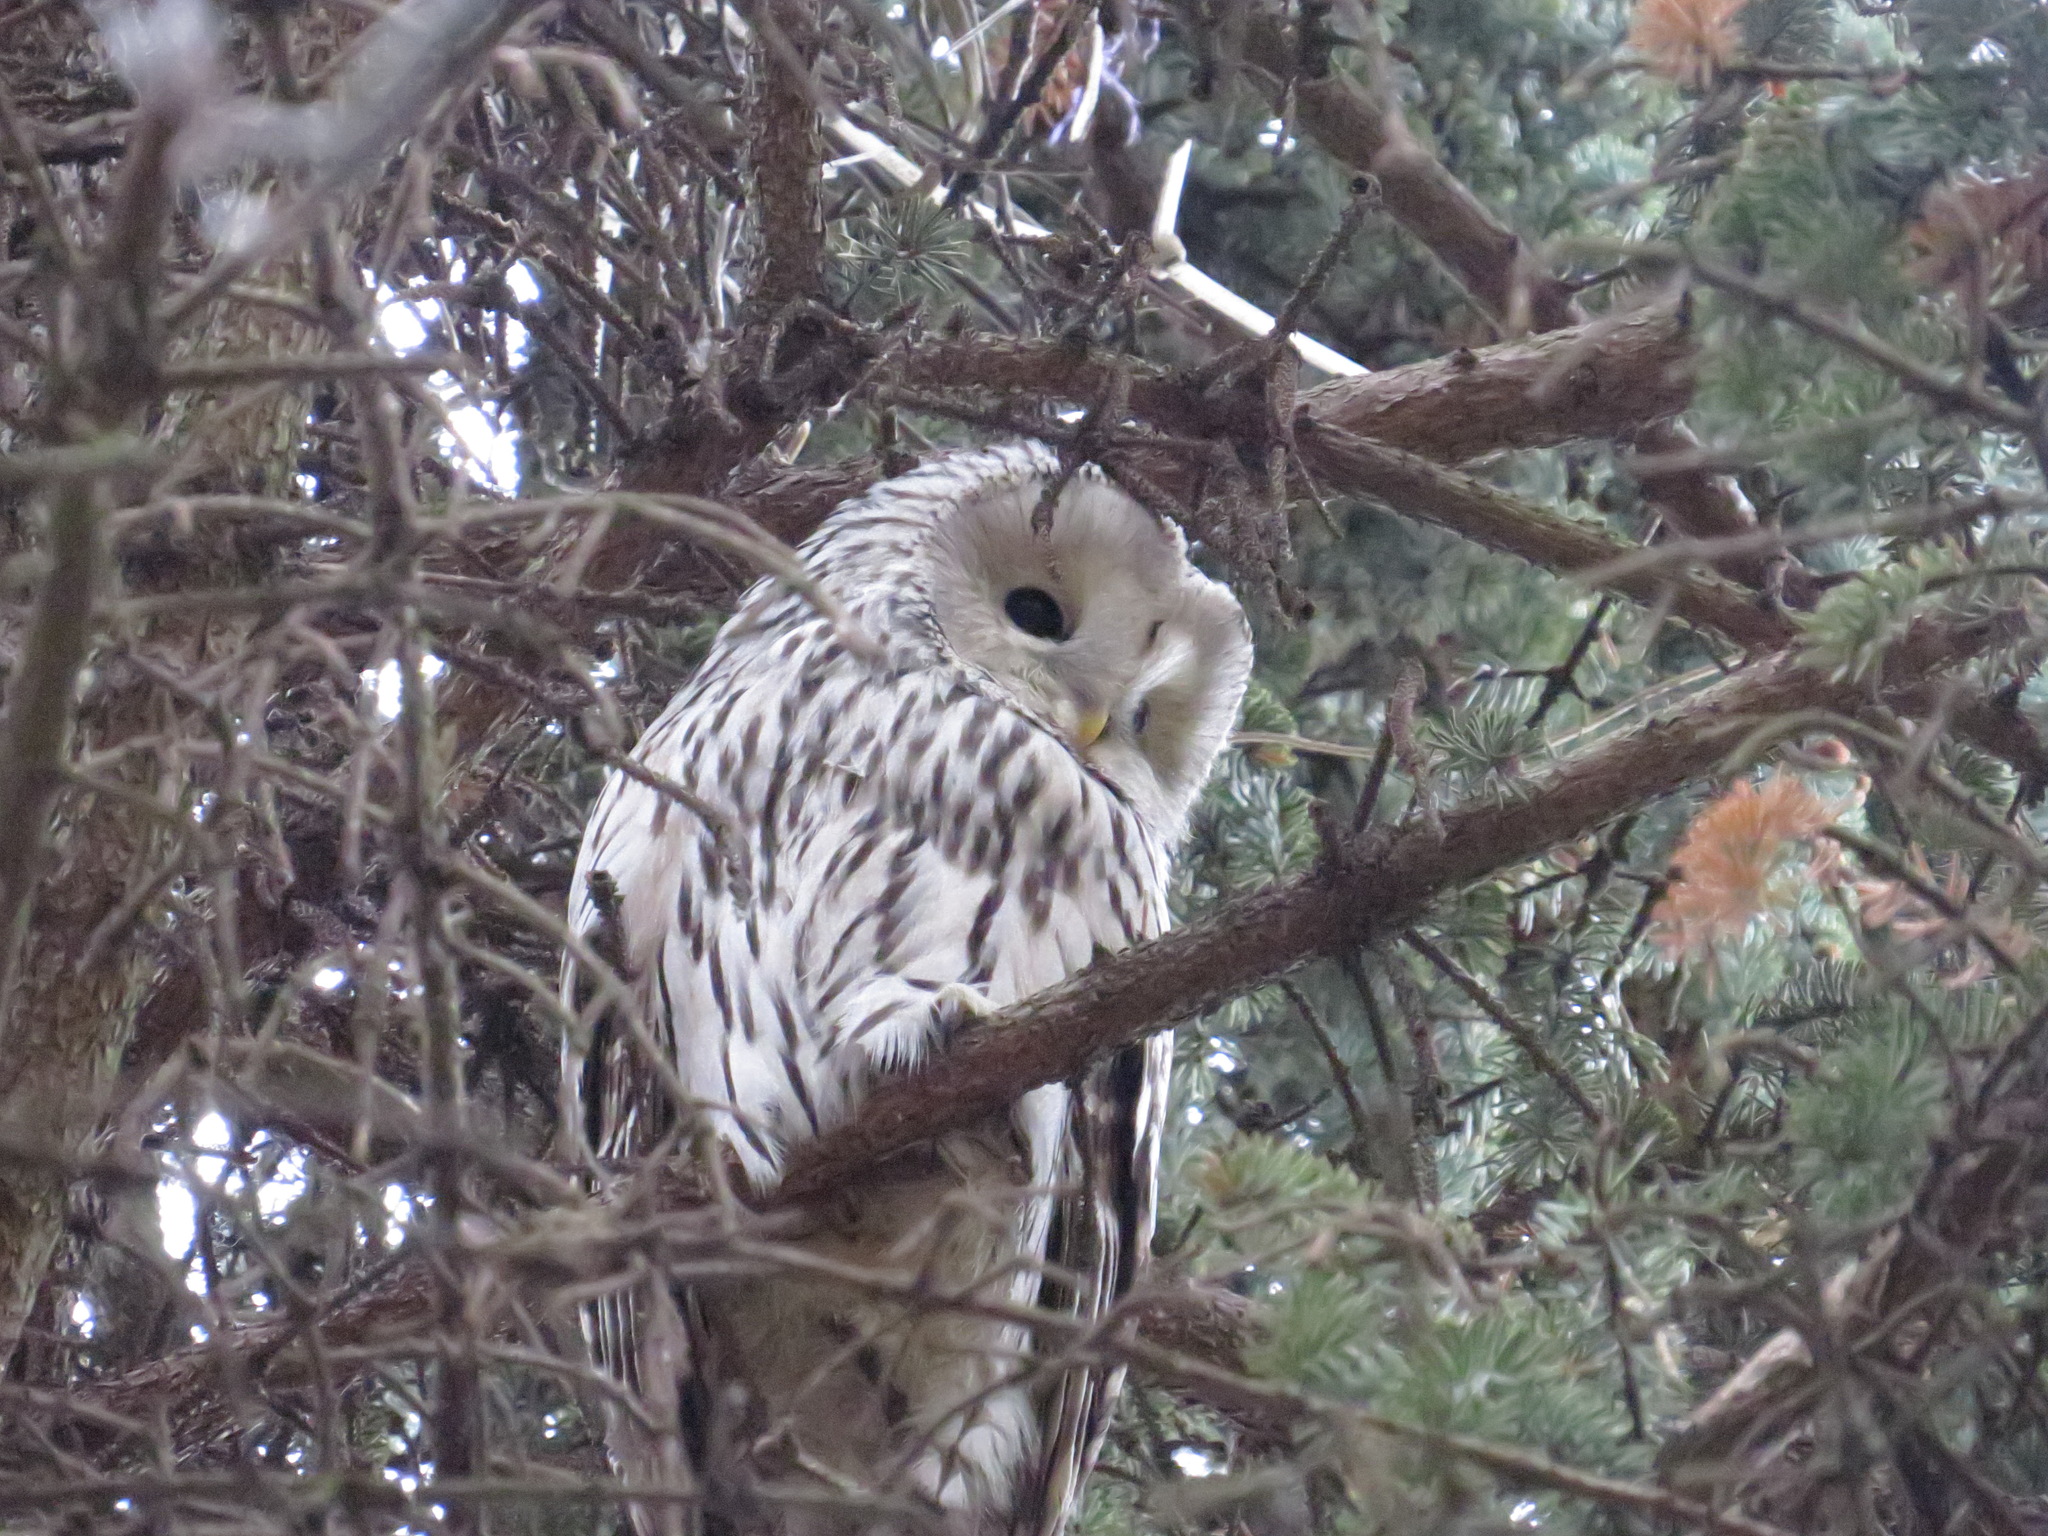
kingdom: Animalia
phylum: Chordata
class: Aves
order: Strigiformes
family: Strigidae
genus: Strix
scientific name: Strix uralensis
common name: Ural owl
